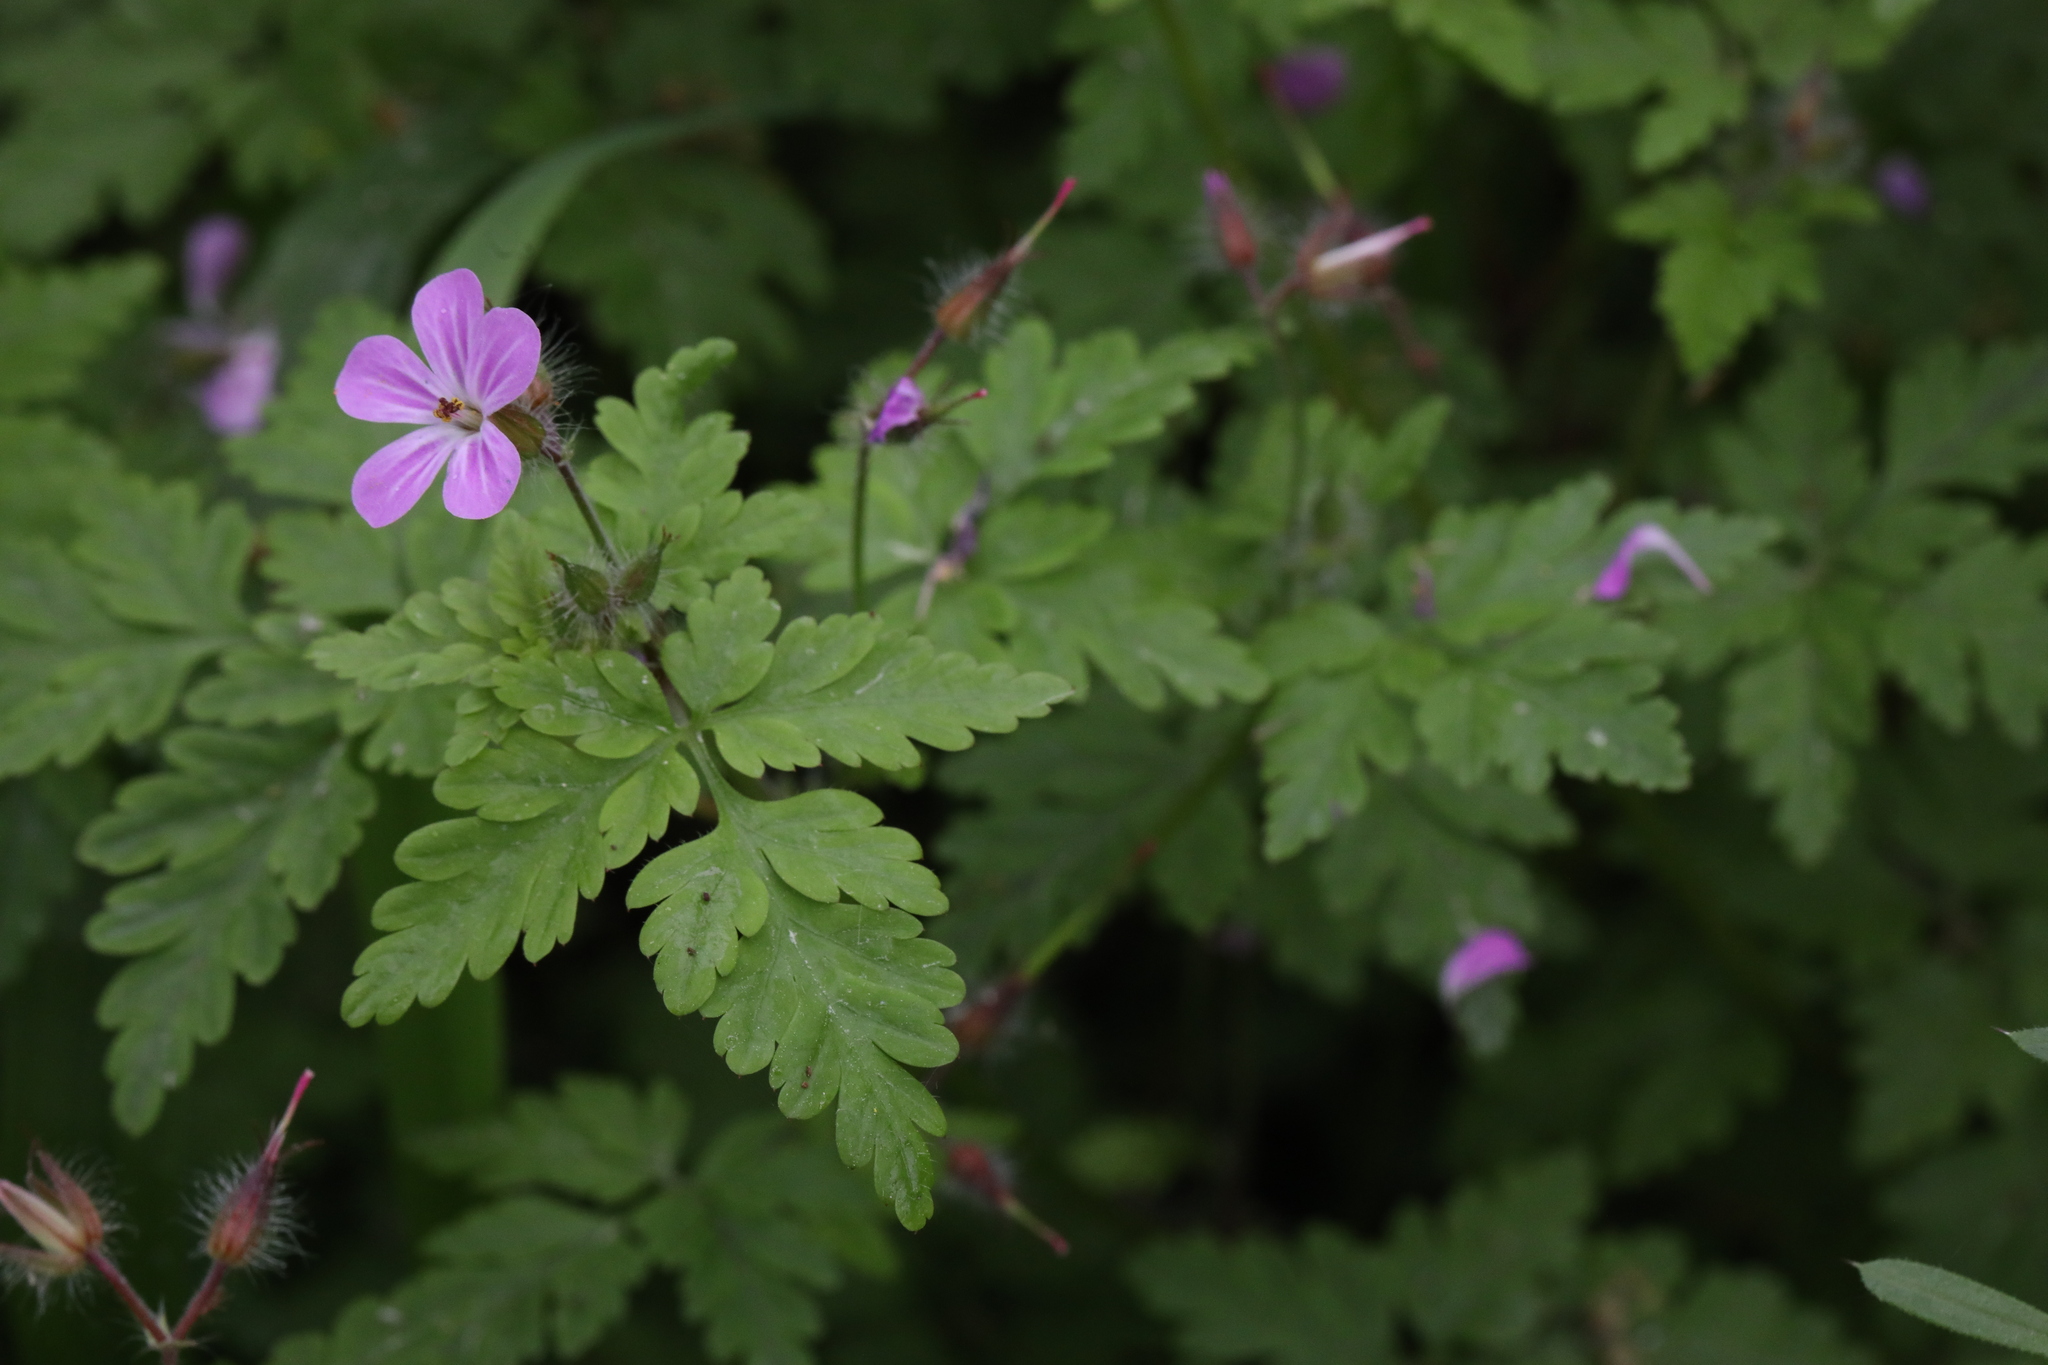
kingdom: Plantae
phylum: Tracheophyta
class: Magnoliopsida
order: Geraniales
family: Geraniaceae
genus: Geranium
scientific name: Geranium robertianum
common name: Herb-robert
